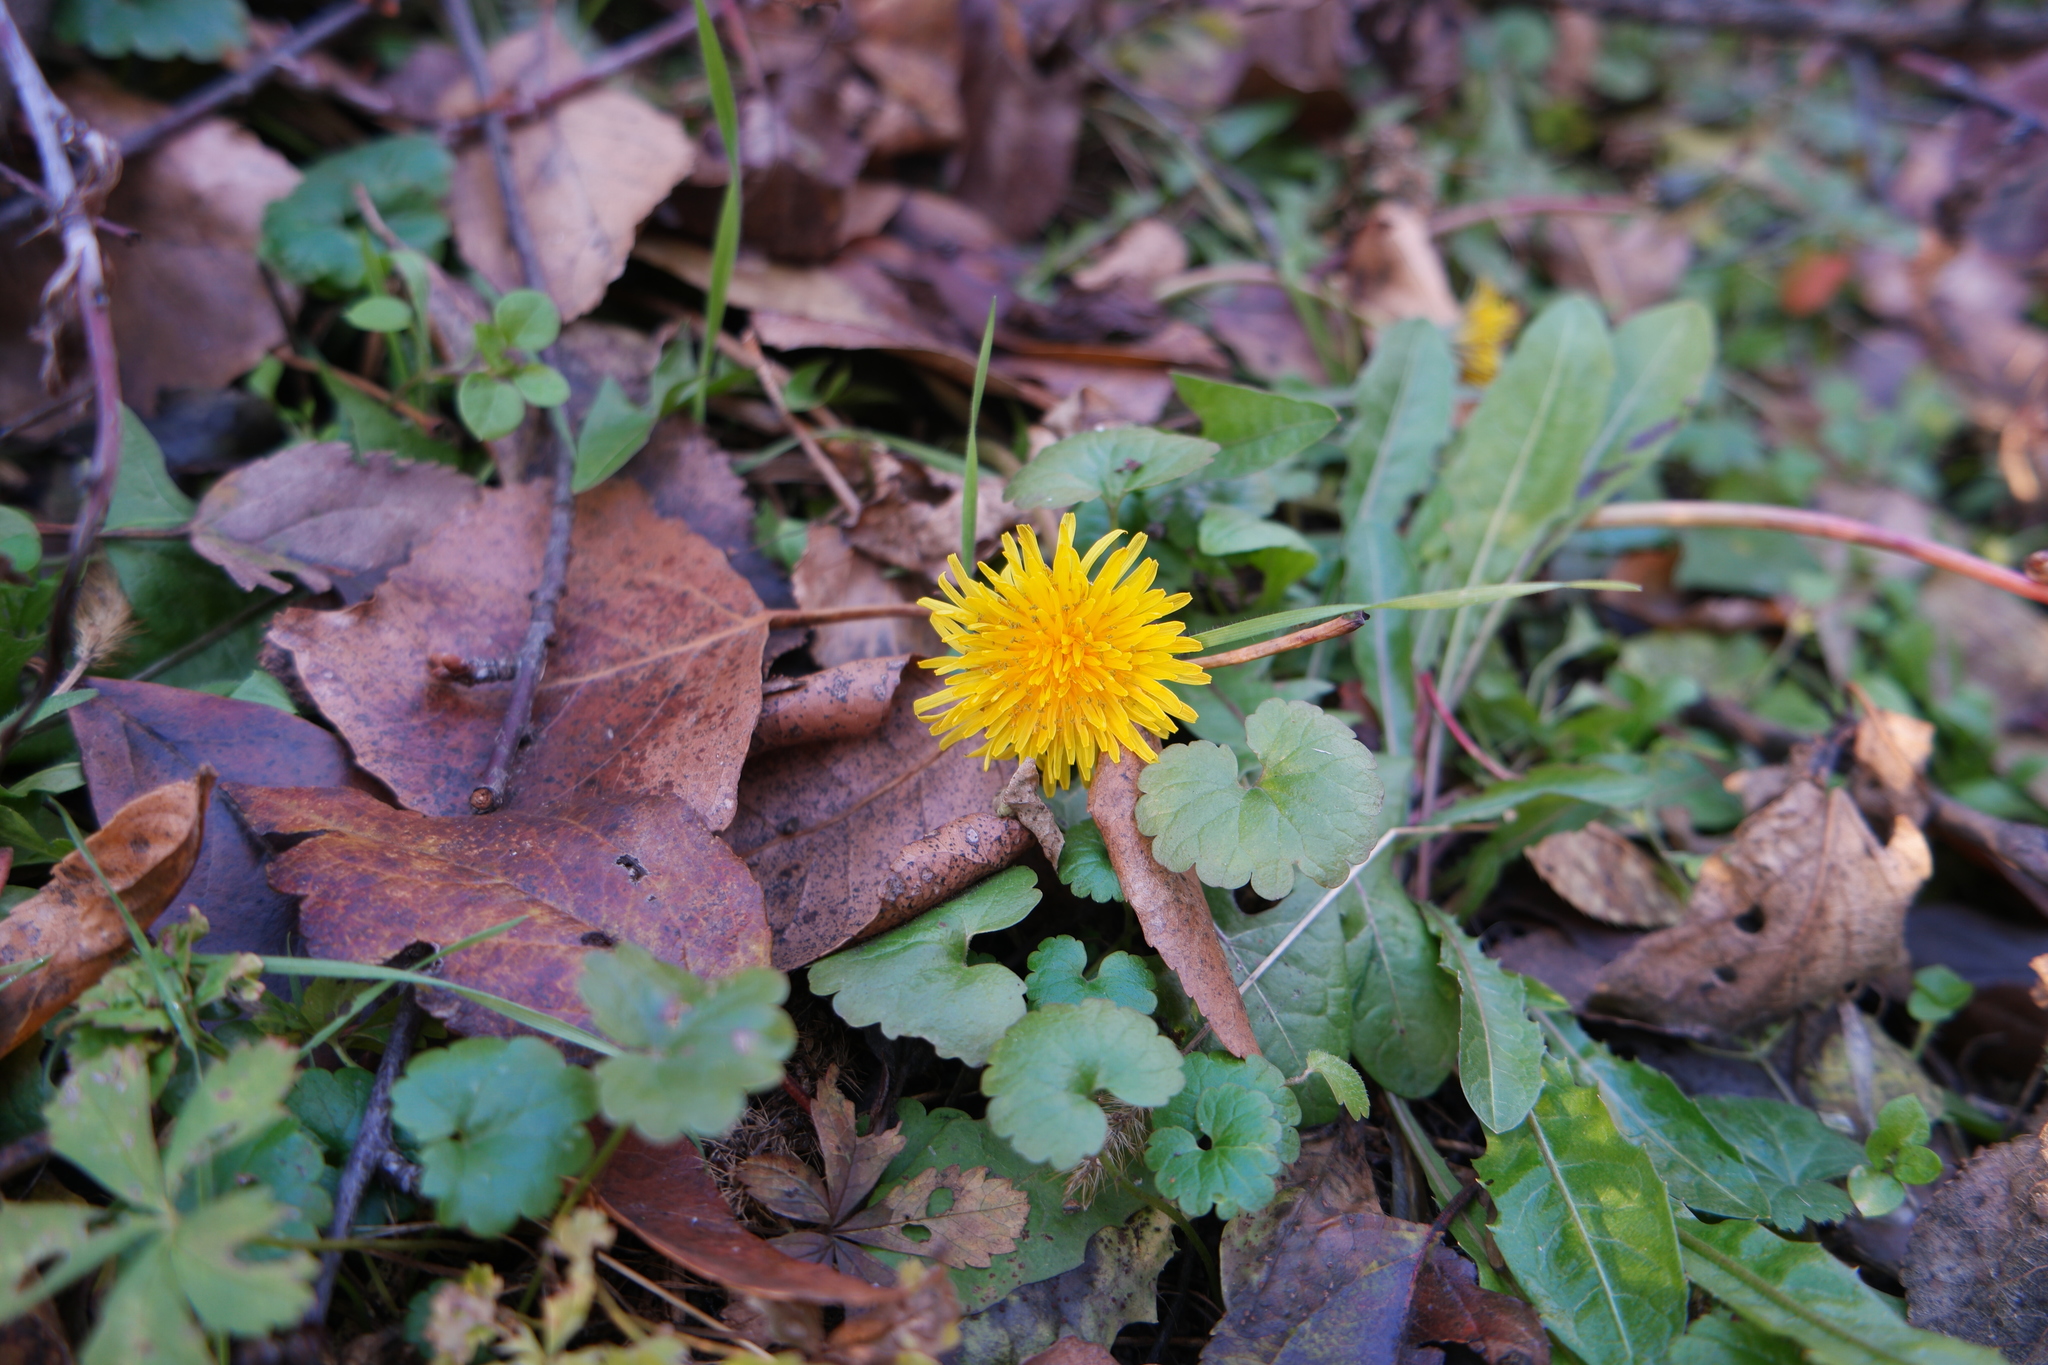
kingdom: Plantae
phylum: Tracheophyta
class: Magnoliopsida
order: Asterales
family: Asteraceae
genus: Taraxacum
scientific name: Taraxacum officinale
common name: Common dandelion
